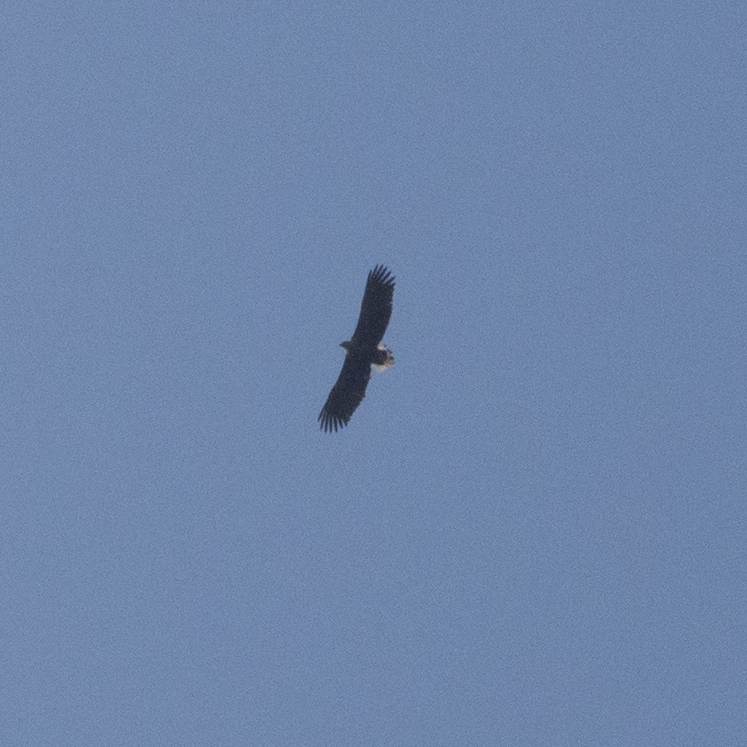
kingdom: Animalia
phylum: Chordata
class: Aves
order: Accipitriformes
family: Accipitridae
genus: Haliaeetus
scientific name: Haliaeetus albicilla
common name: White-tailed eagle
